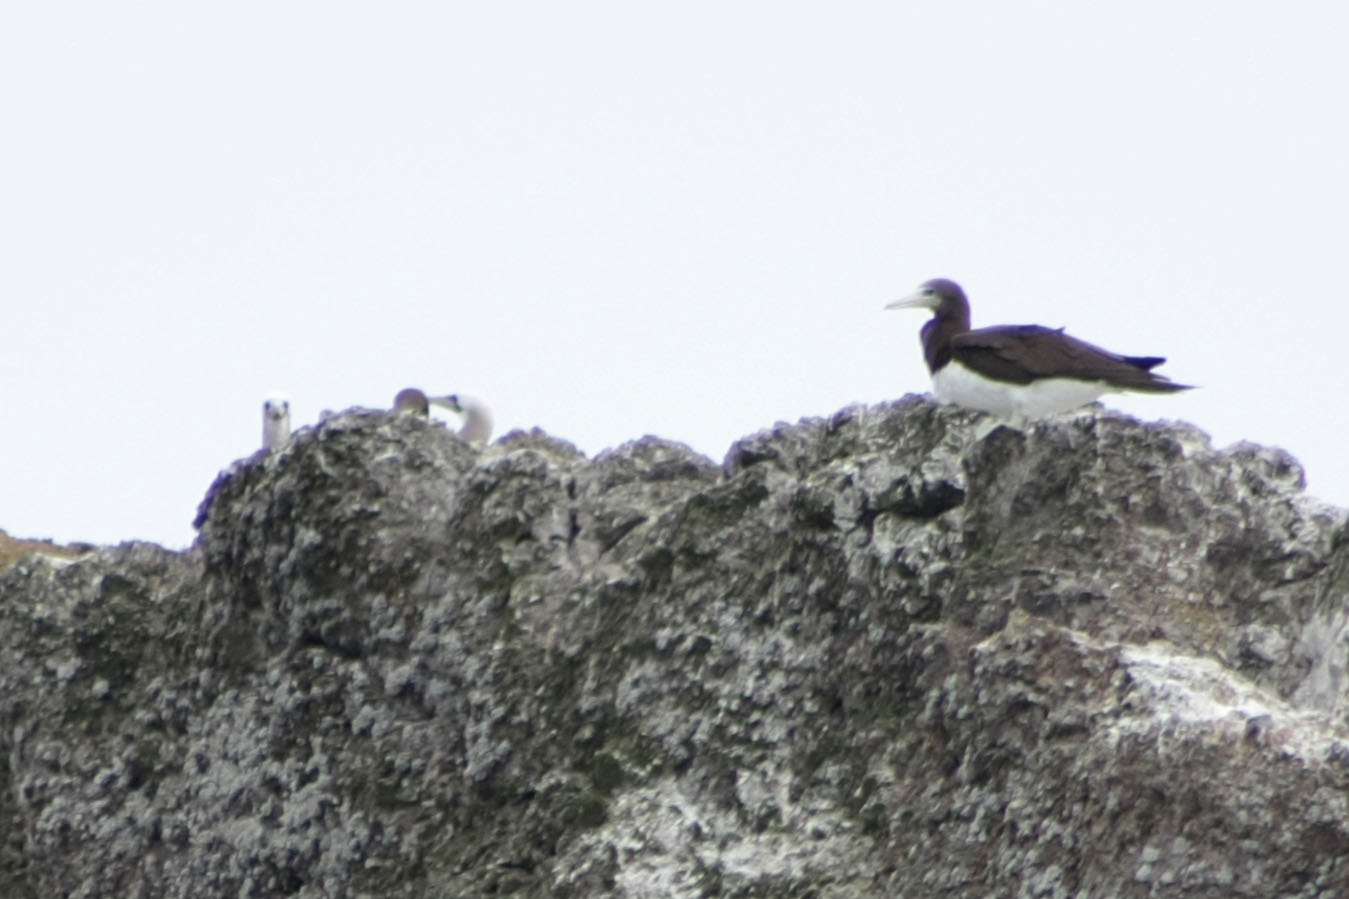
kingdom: Animalia
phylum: Chordata
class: Aves
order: Suliformes
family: Sulidae
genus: Sula
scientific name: Sula leucogaster
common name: Brown booby
